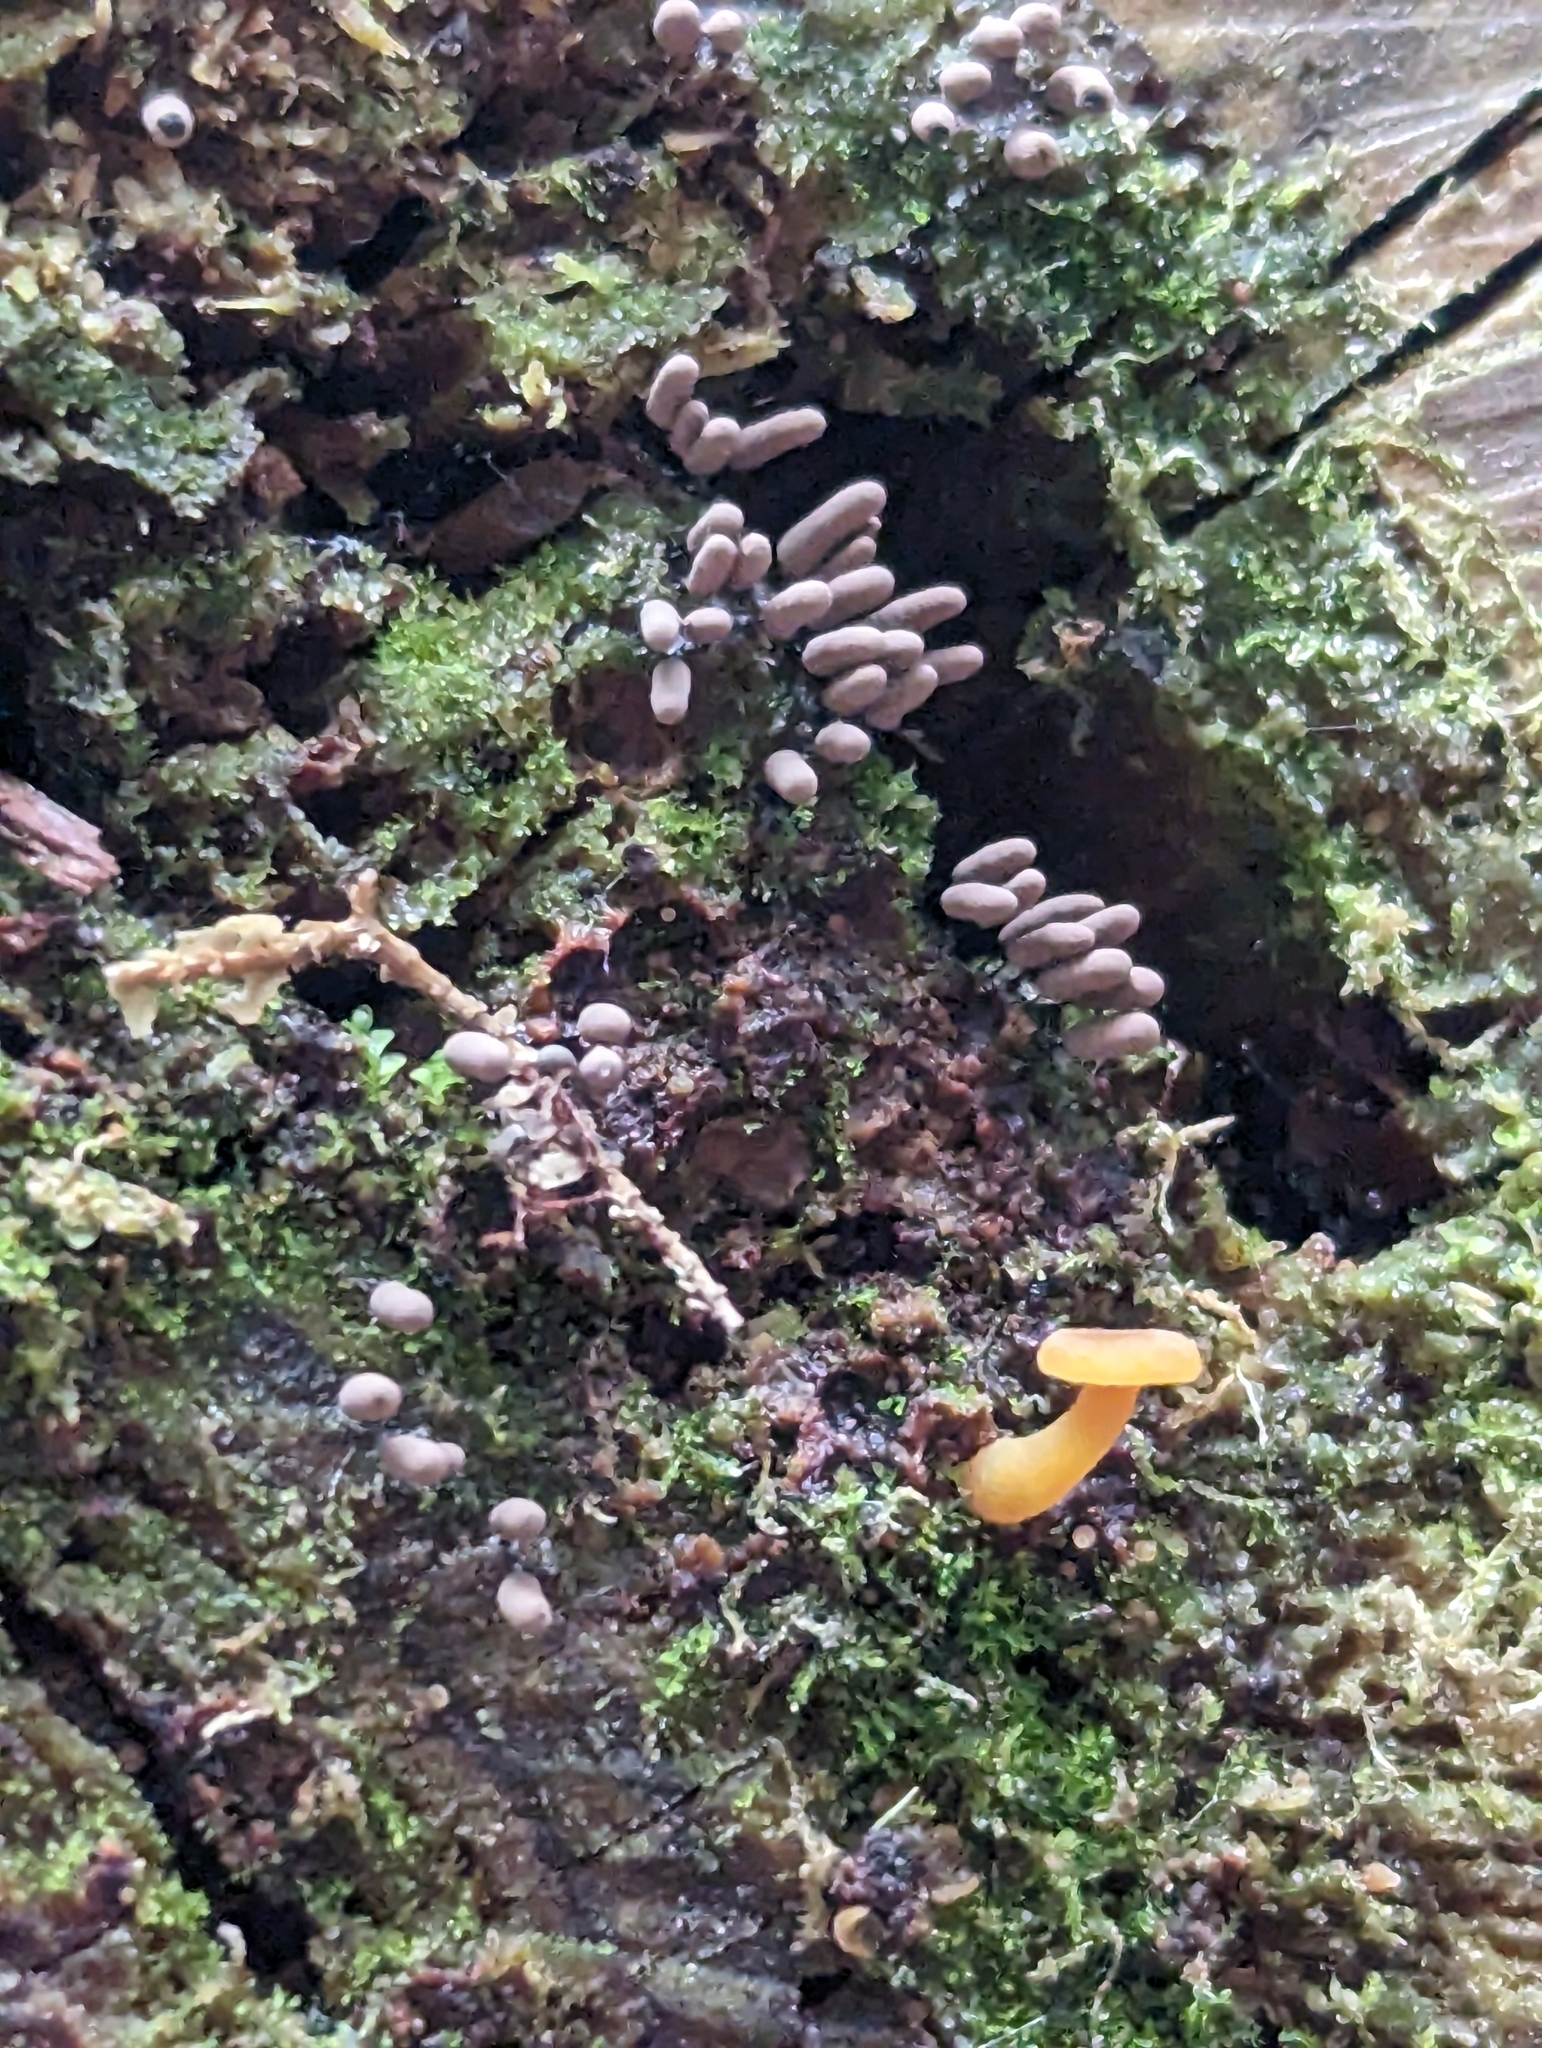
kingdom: Protozoa
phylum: Mycetozoa
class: Myxomycetes
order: Trichiales
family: Arcyriaceae
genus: Arcyria
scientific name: Arcyria cinerea
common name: White carnival candy slime mold
